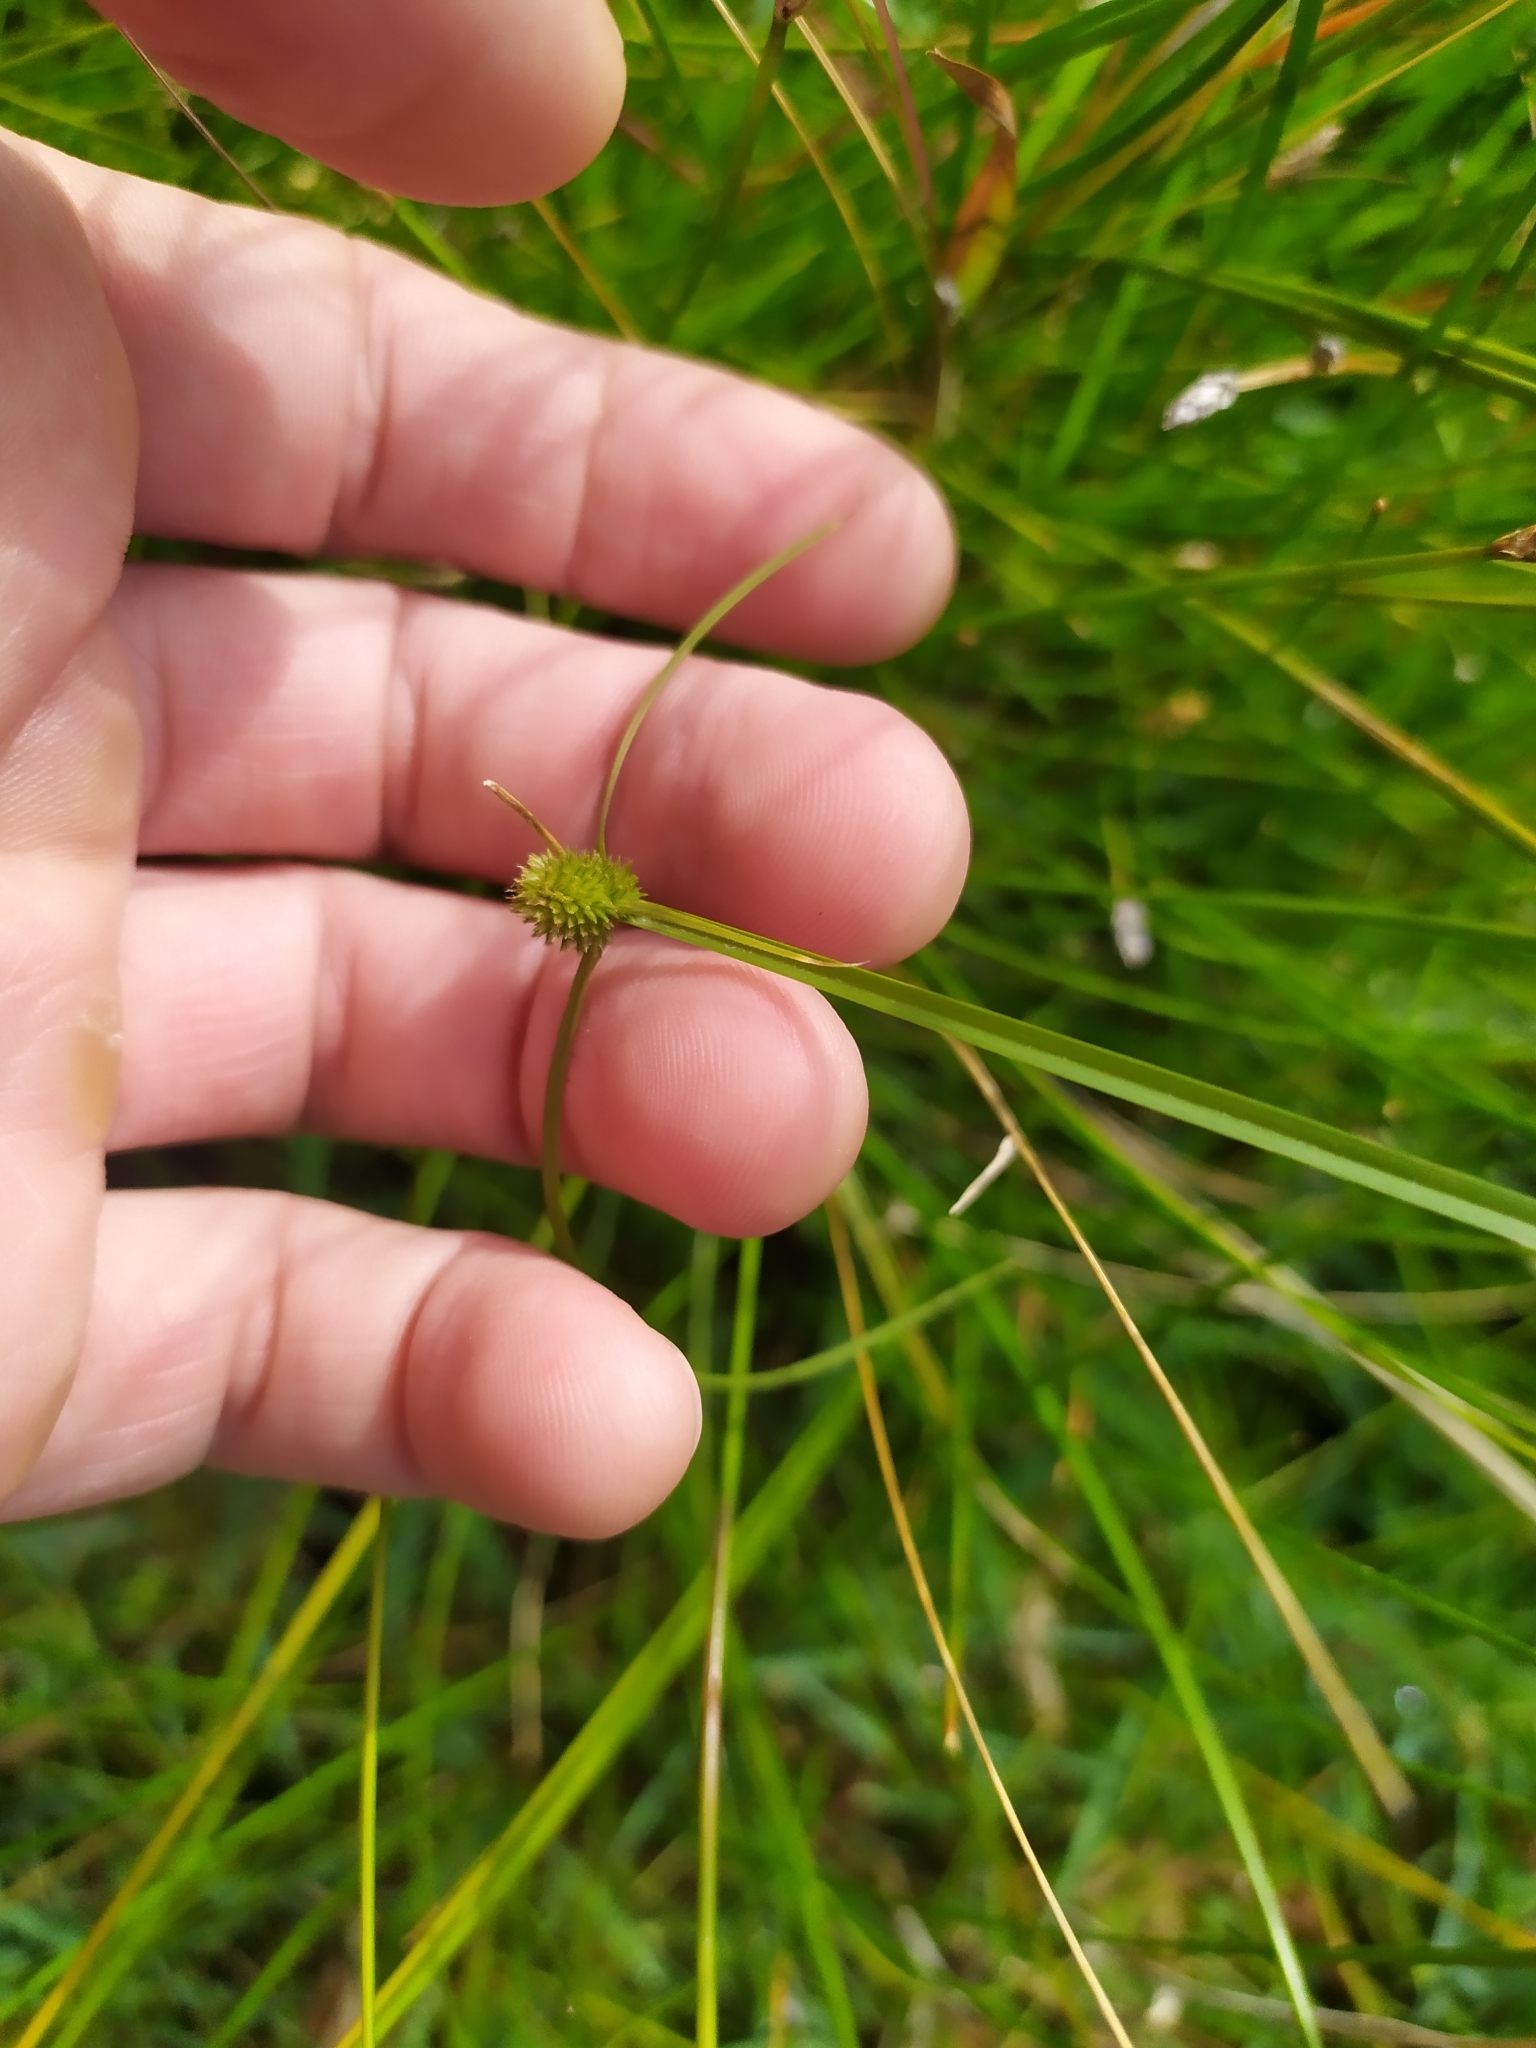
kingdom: Plantae
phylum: Tracheophyta
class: Liliopsida
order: Poales
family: Cyperaceae
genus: Cyperus
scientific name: Cyperus brevifolius
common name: Globe kyllinga
